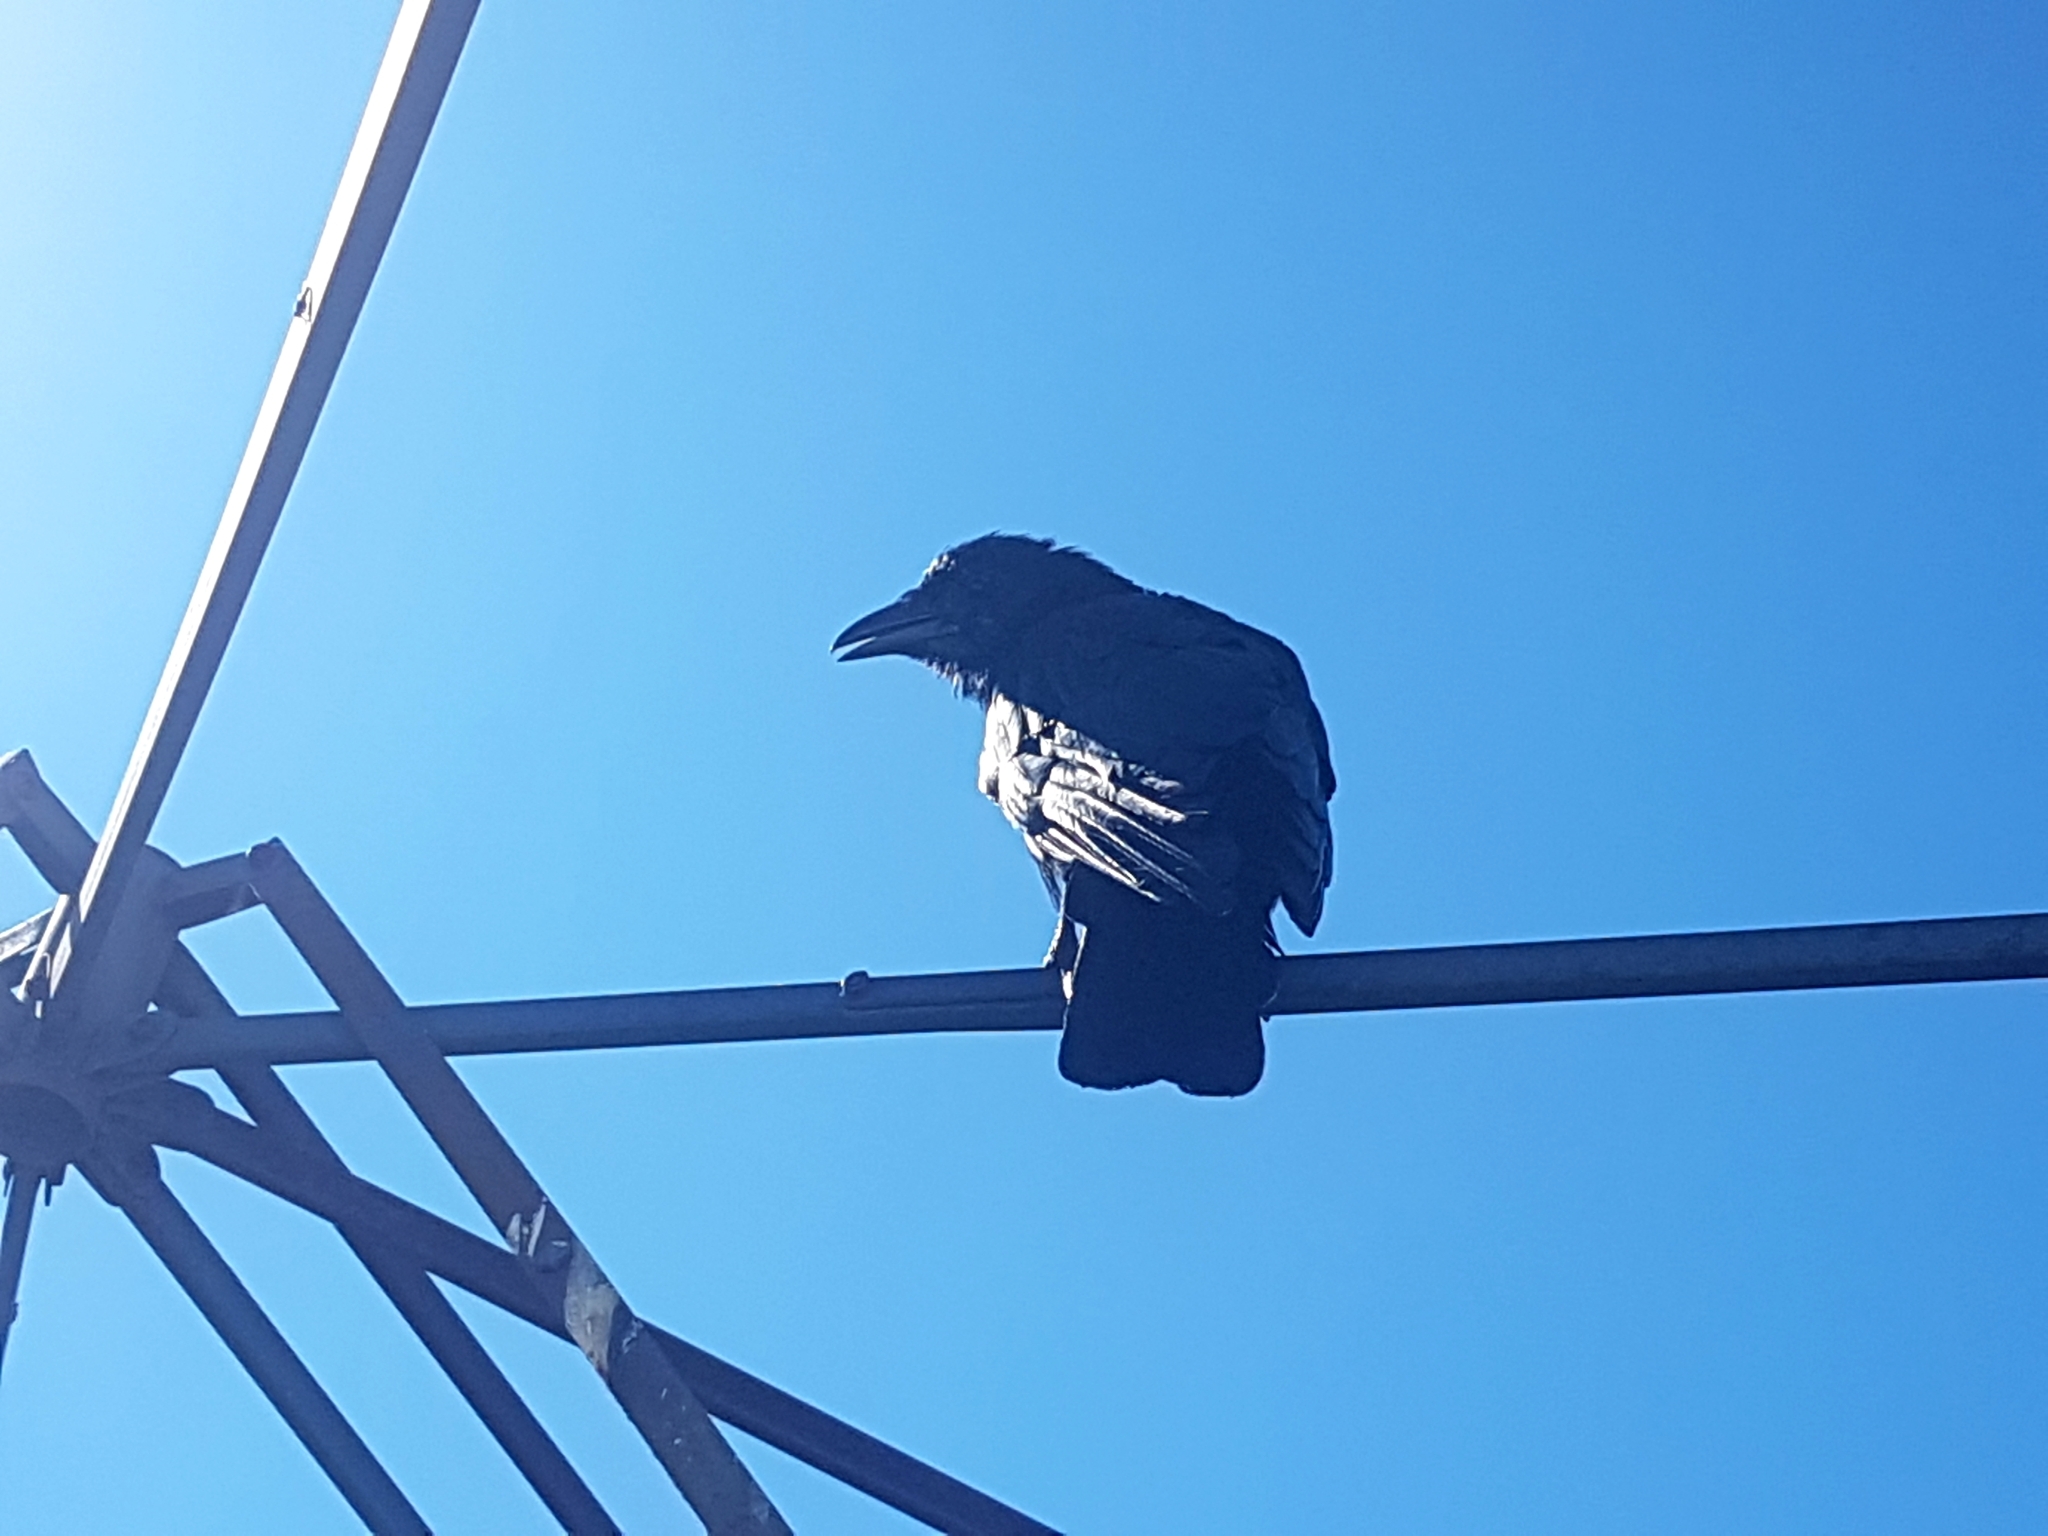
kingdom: Animalia
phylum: Chordata
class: Aves
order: Passeriformes
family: Corvidae
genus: Corvus
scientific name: Corvus brachyrhynchos
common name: American crow
